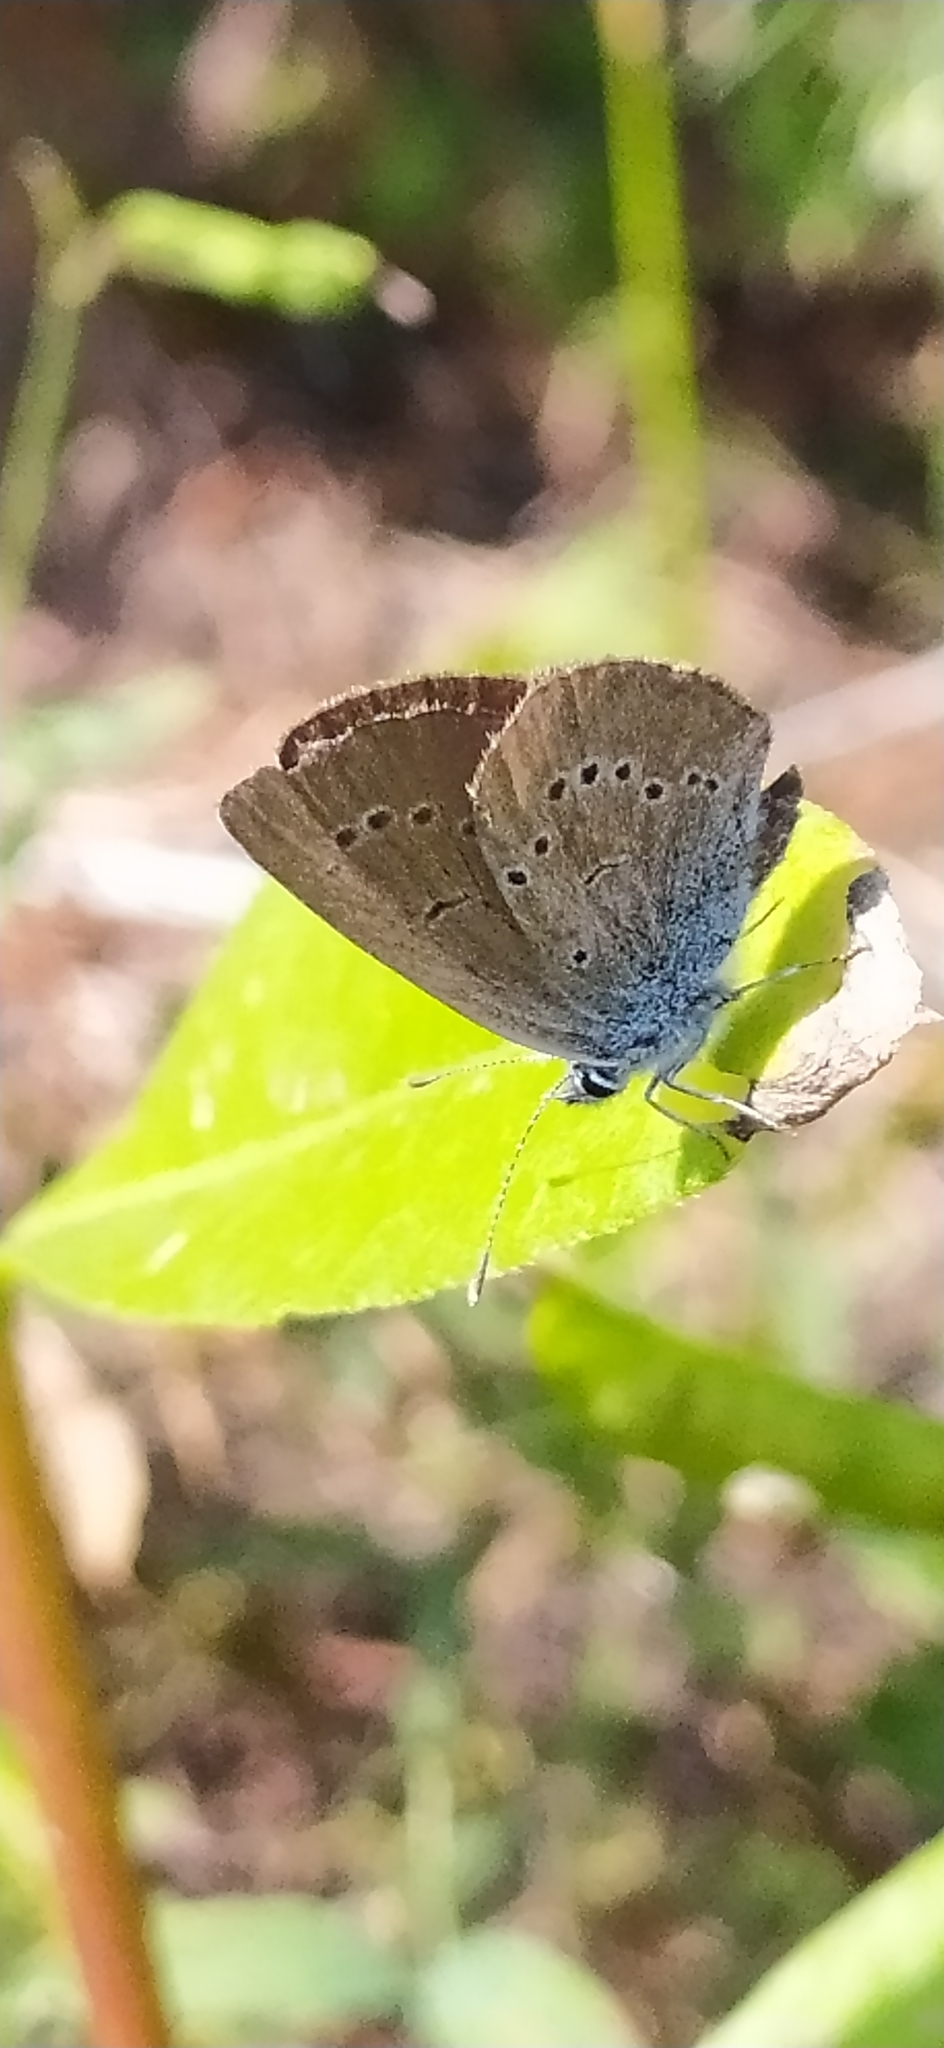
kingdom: Animalia
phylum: Arthropoda
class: Insecta
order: Lepidoptera
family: Lycaenidae
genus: Cyaniris
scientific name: Cyaniris semiargus
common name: Mazarine blue
